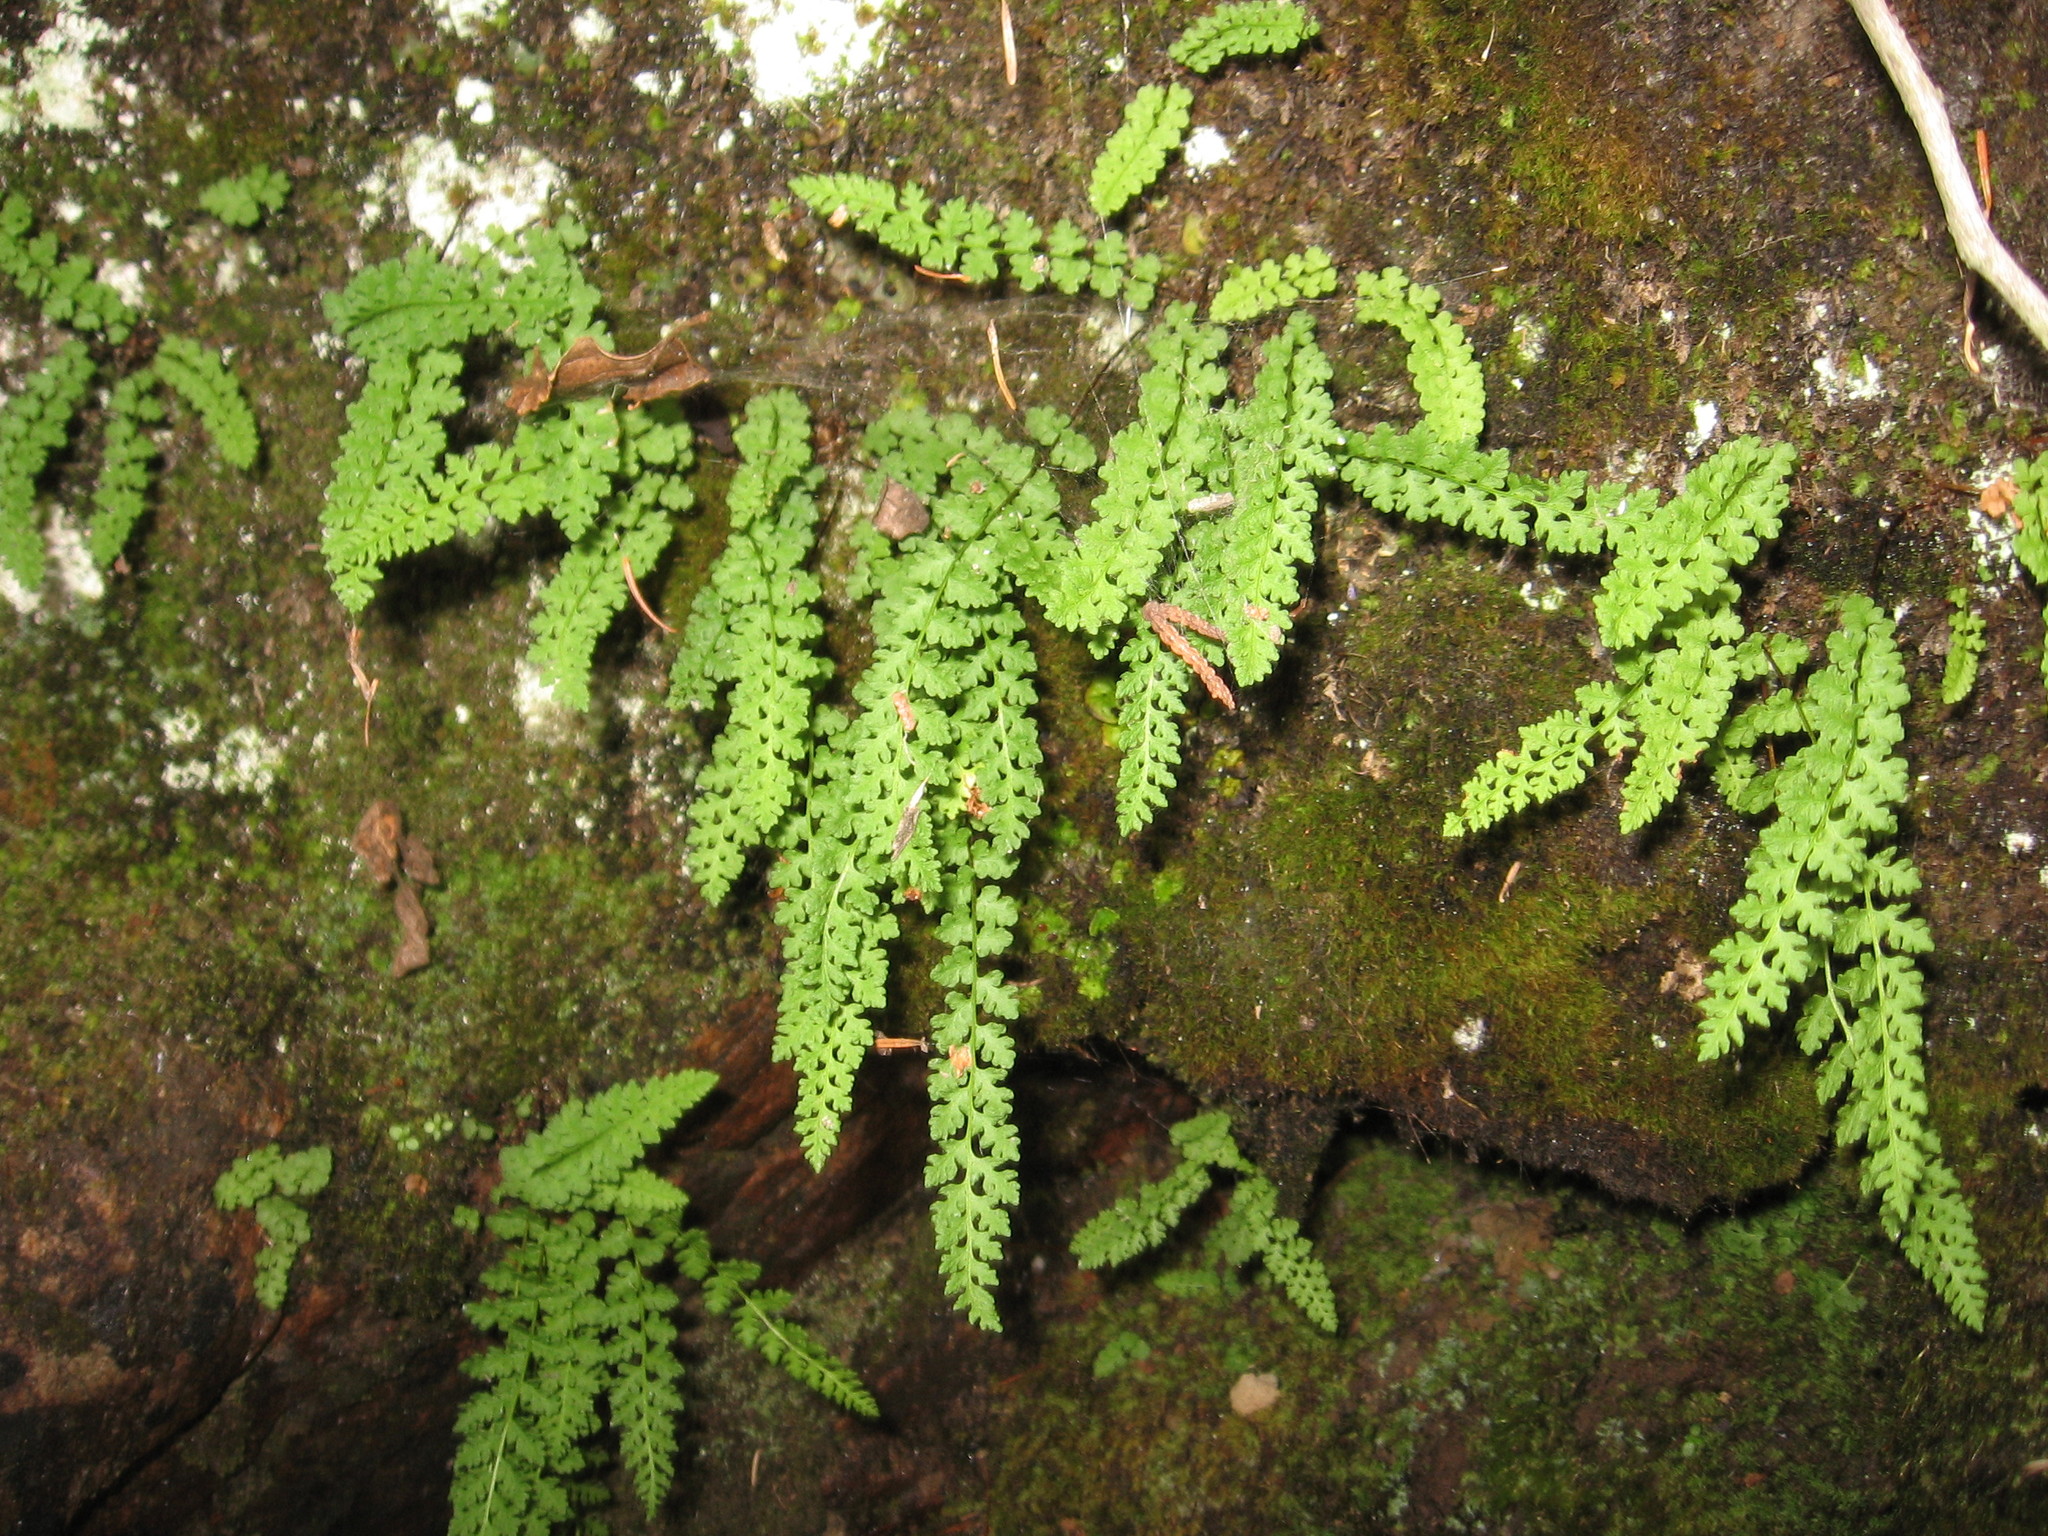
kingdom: Plantae
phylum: Tracheophyta
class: Polypodiopsida
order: Polypodiales
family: Woodsiaceae
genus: Woodsia
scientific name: Woodsia alpina
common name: Alpine woodsia
